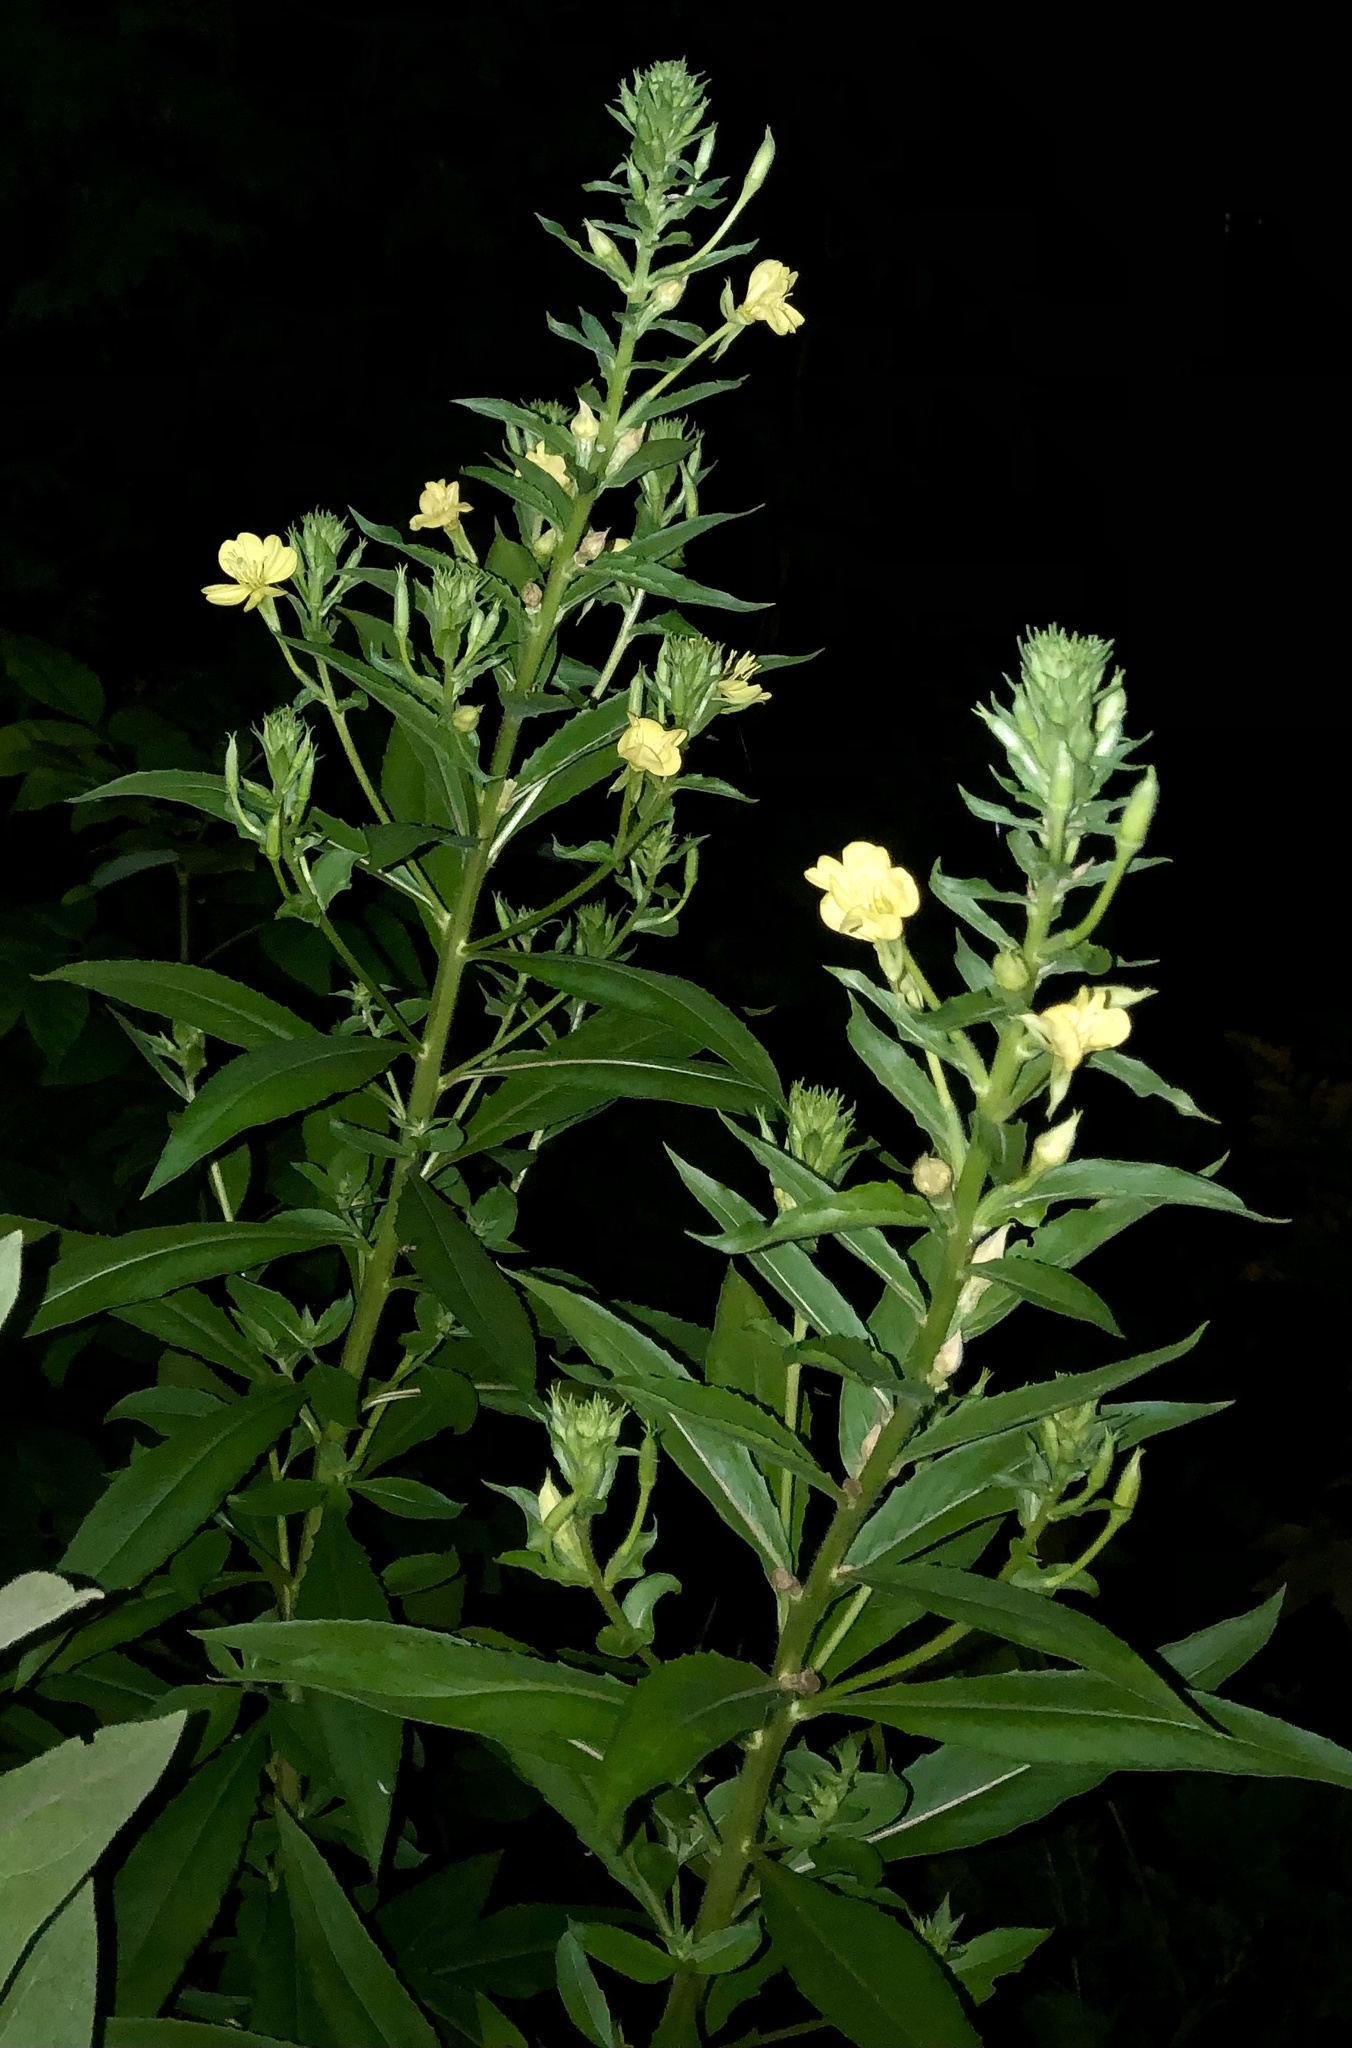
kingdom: Plantae
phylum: Tracheophyta
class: Magnoliopsida
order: Myrtales
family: Onagraceae
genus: Oenothera
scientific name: Oenothera parviflora
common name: Least evening-primrose
